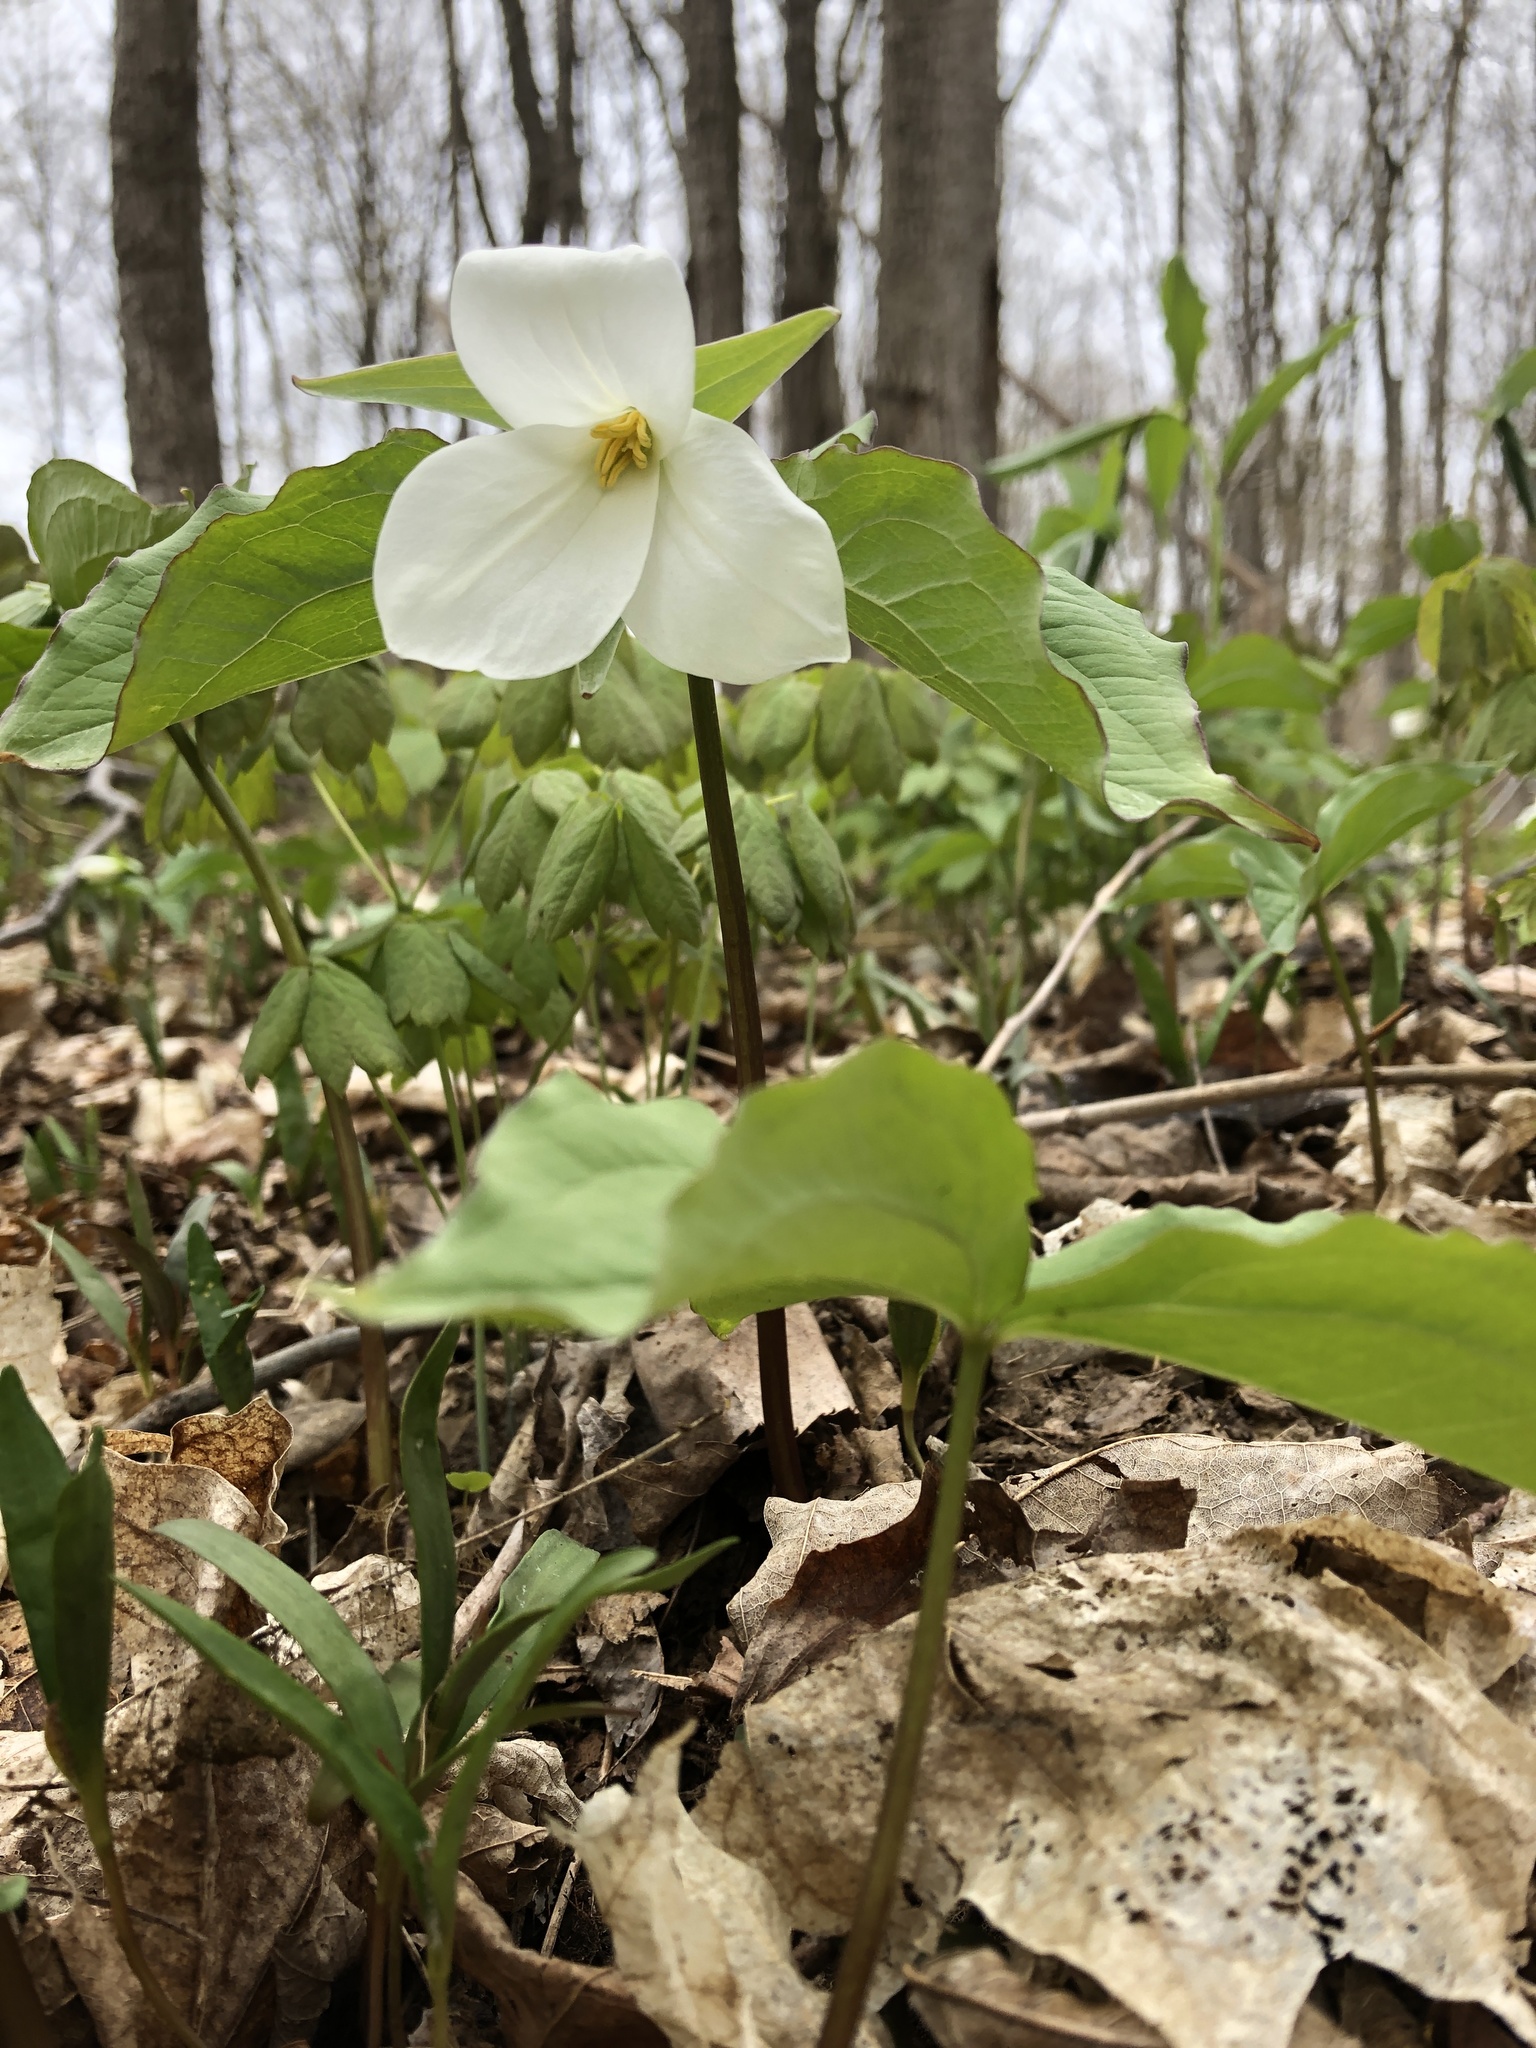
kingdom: Plantae
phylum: Tracheophyta
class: Liliopsida
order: Liliales
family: Melanthiaceae
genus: Trillium
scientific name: Trillium grandiflorum
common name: Great white trillium
